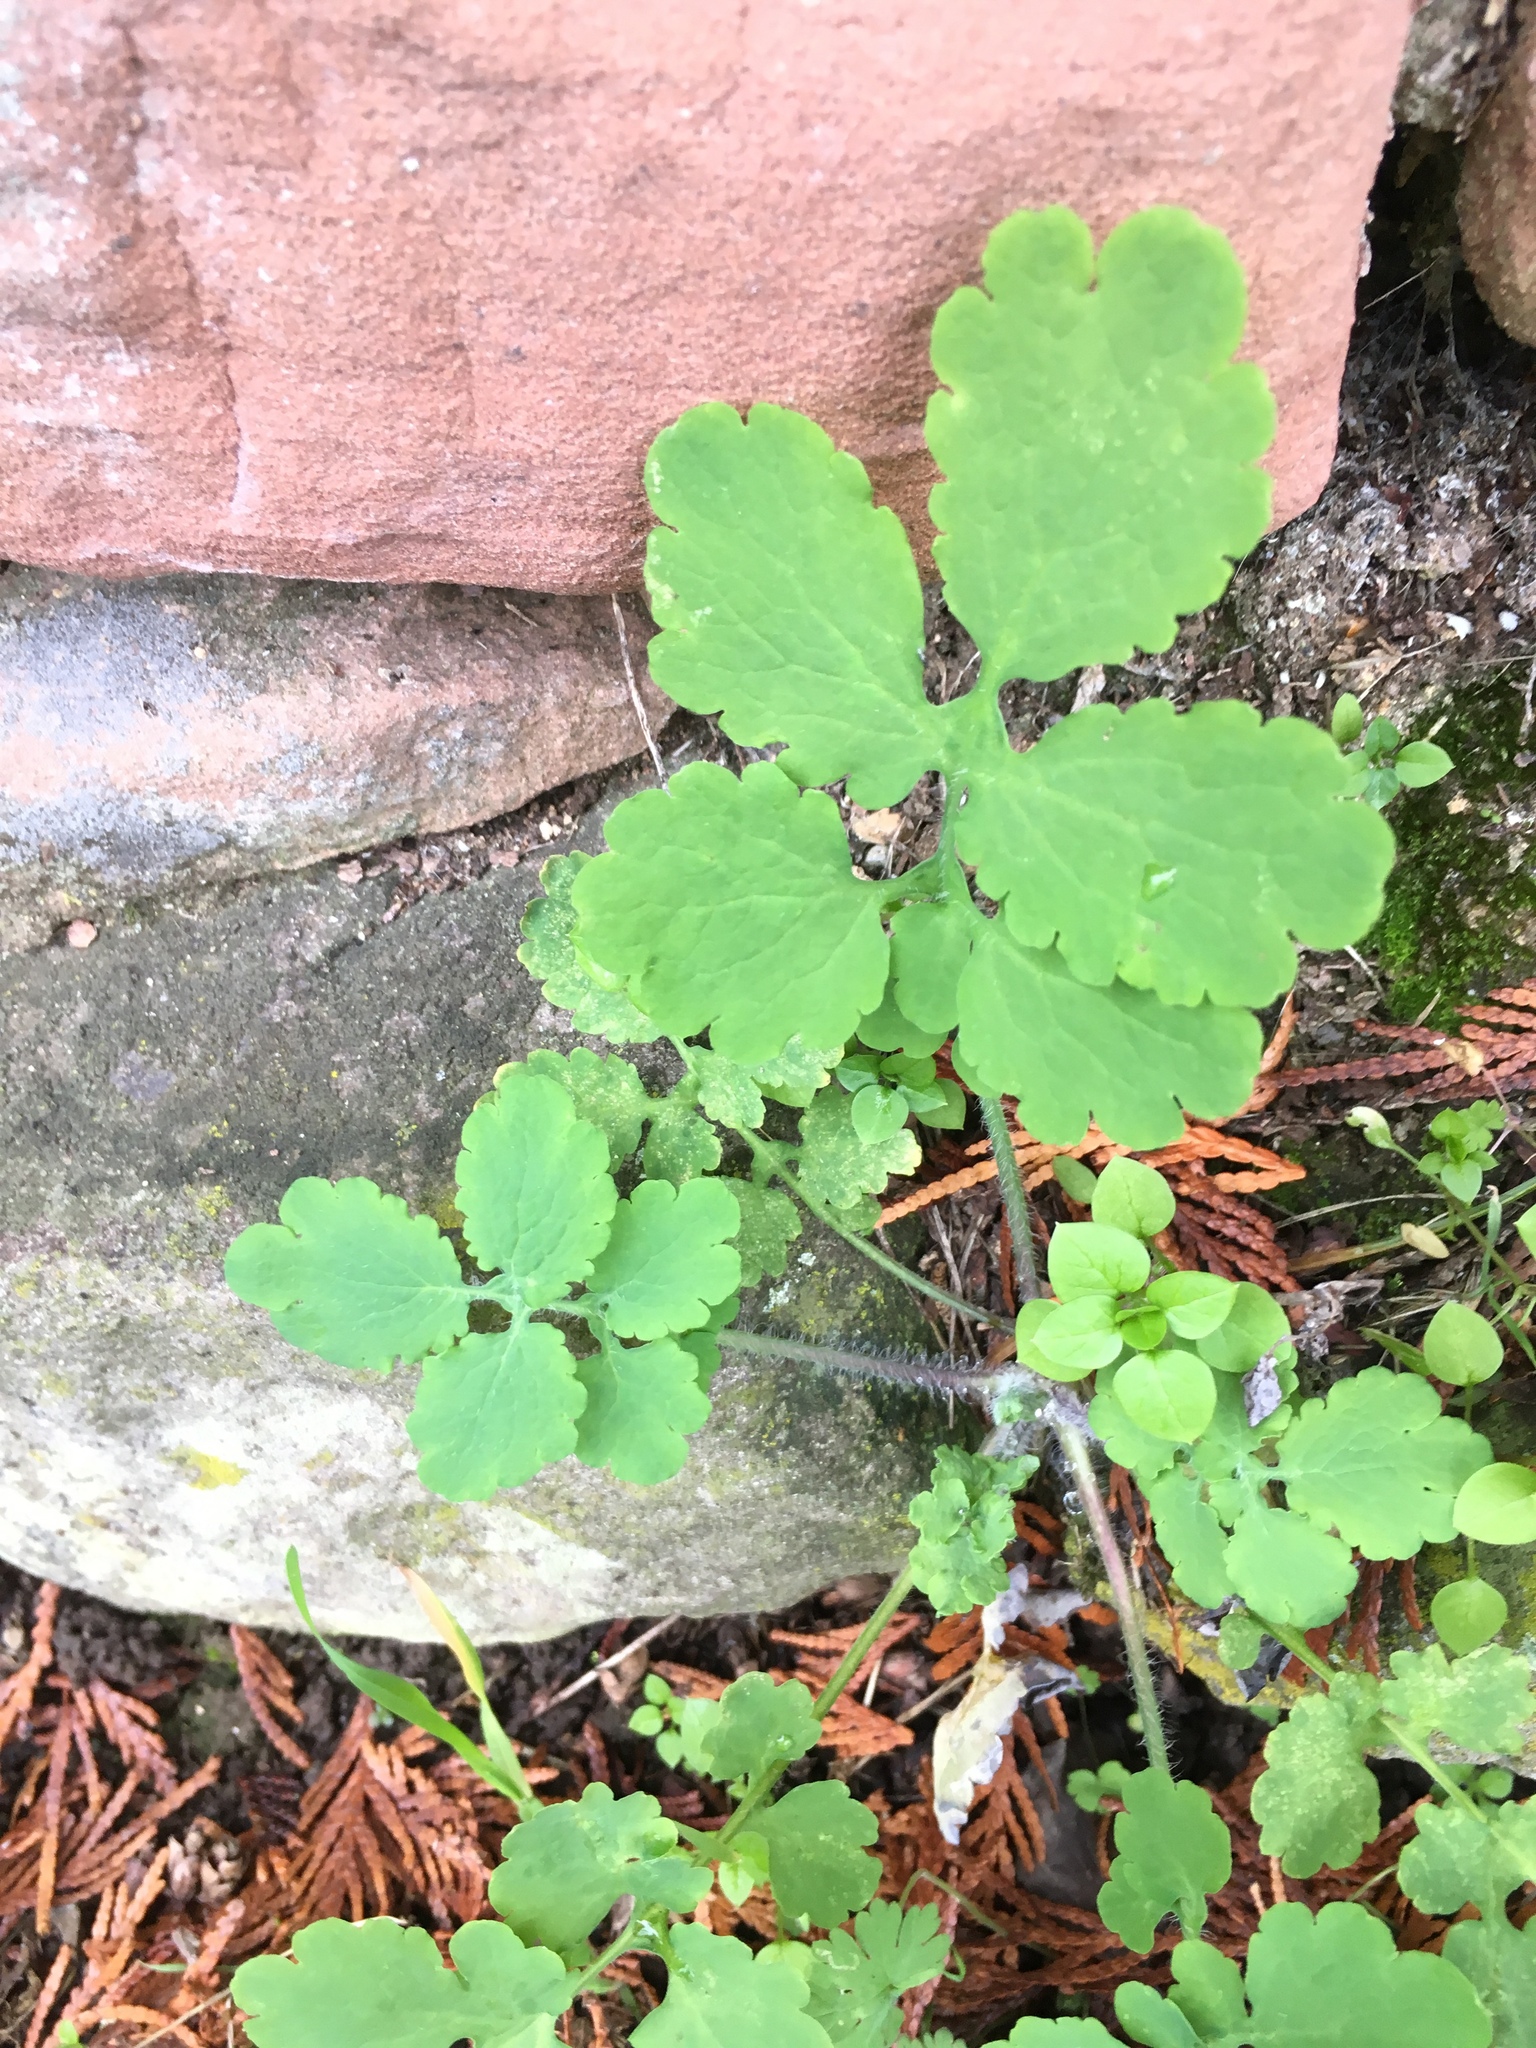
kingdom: Plantae
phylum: Tracheophyta
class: Magnoliopsida
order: Ranunculales
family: Papaveraceae
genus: Chelidonium
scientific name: Chelidonium majus
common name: Greater celandine
